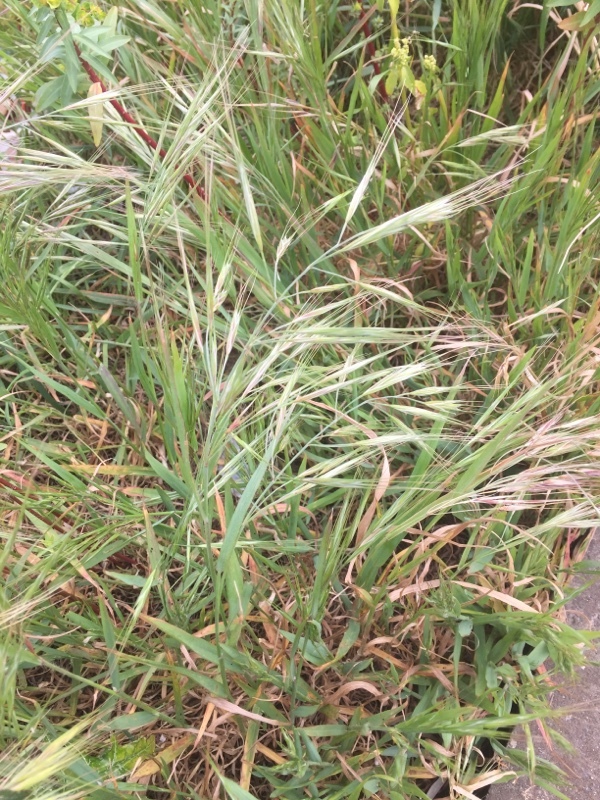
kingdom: Plantae
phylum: Tracheophyta
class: Liliopsida
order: Poales
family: Poaceae
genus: Bromus
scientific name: Bromus sterilis
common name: Poverty brome
